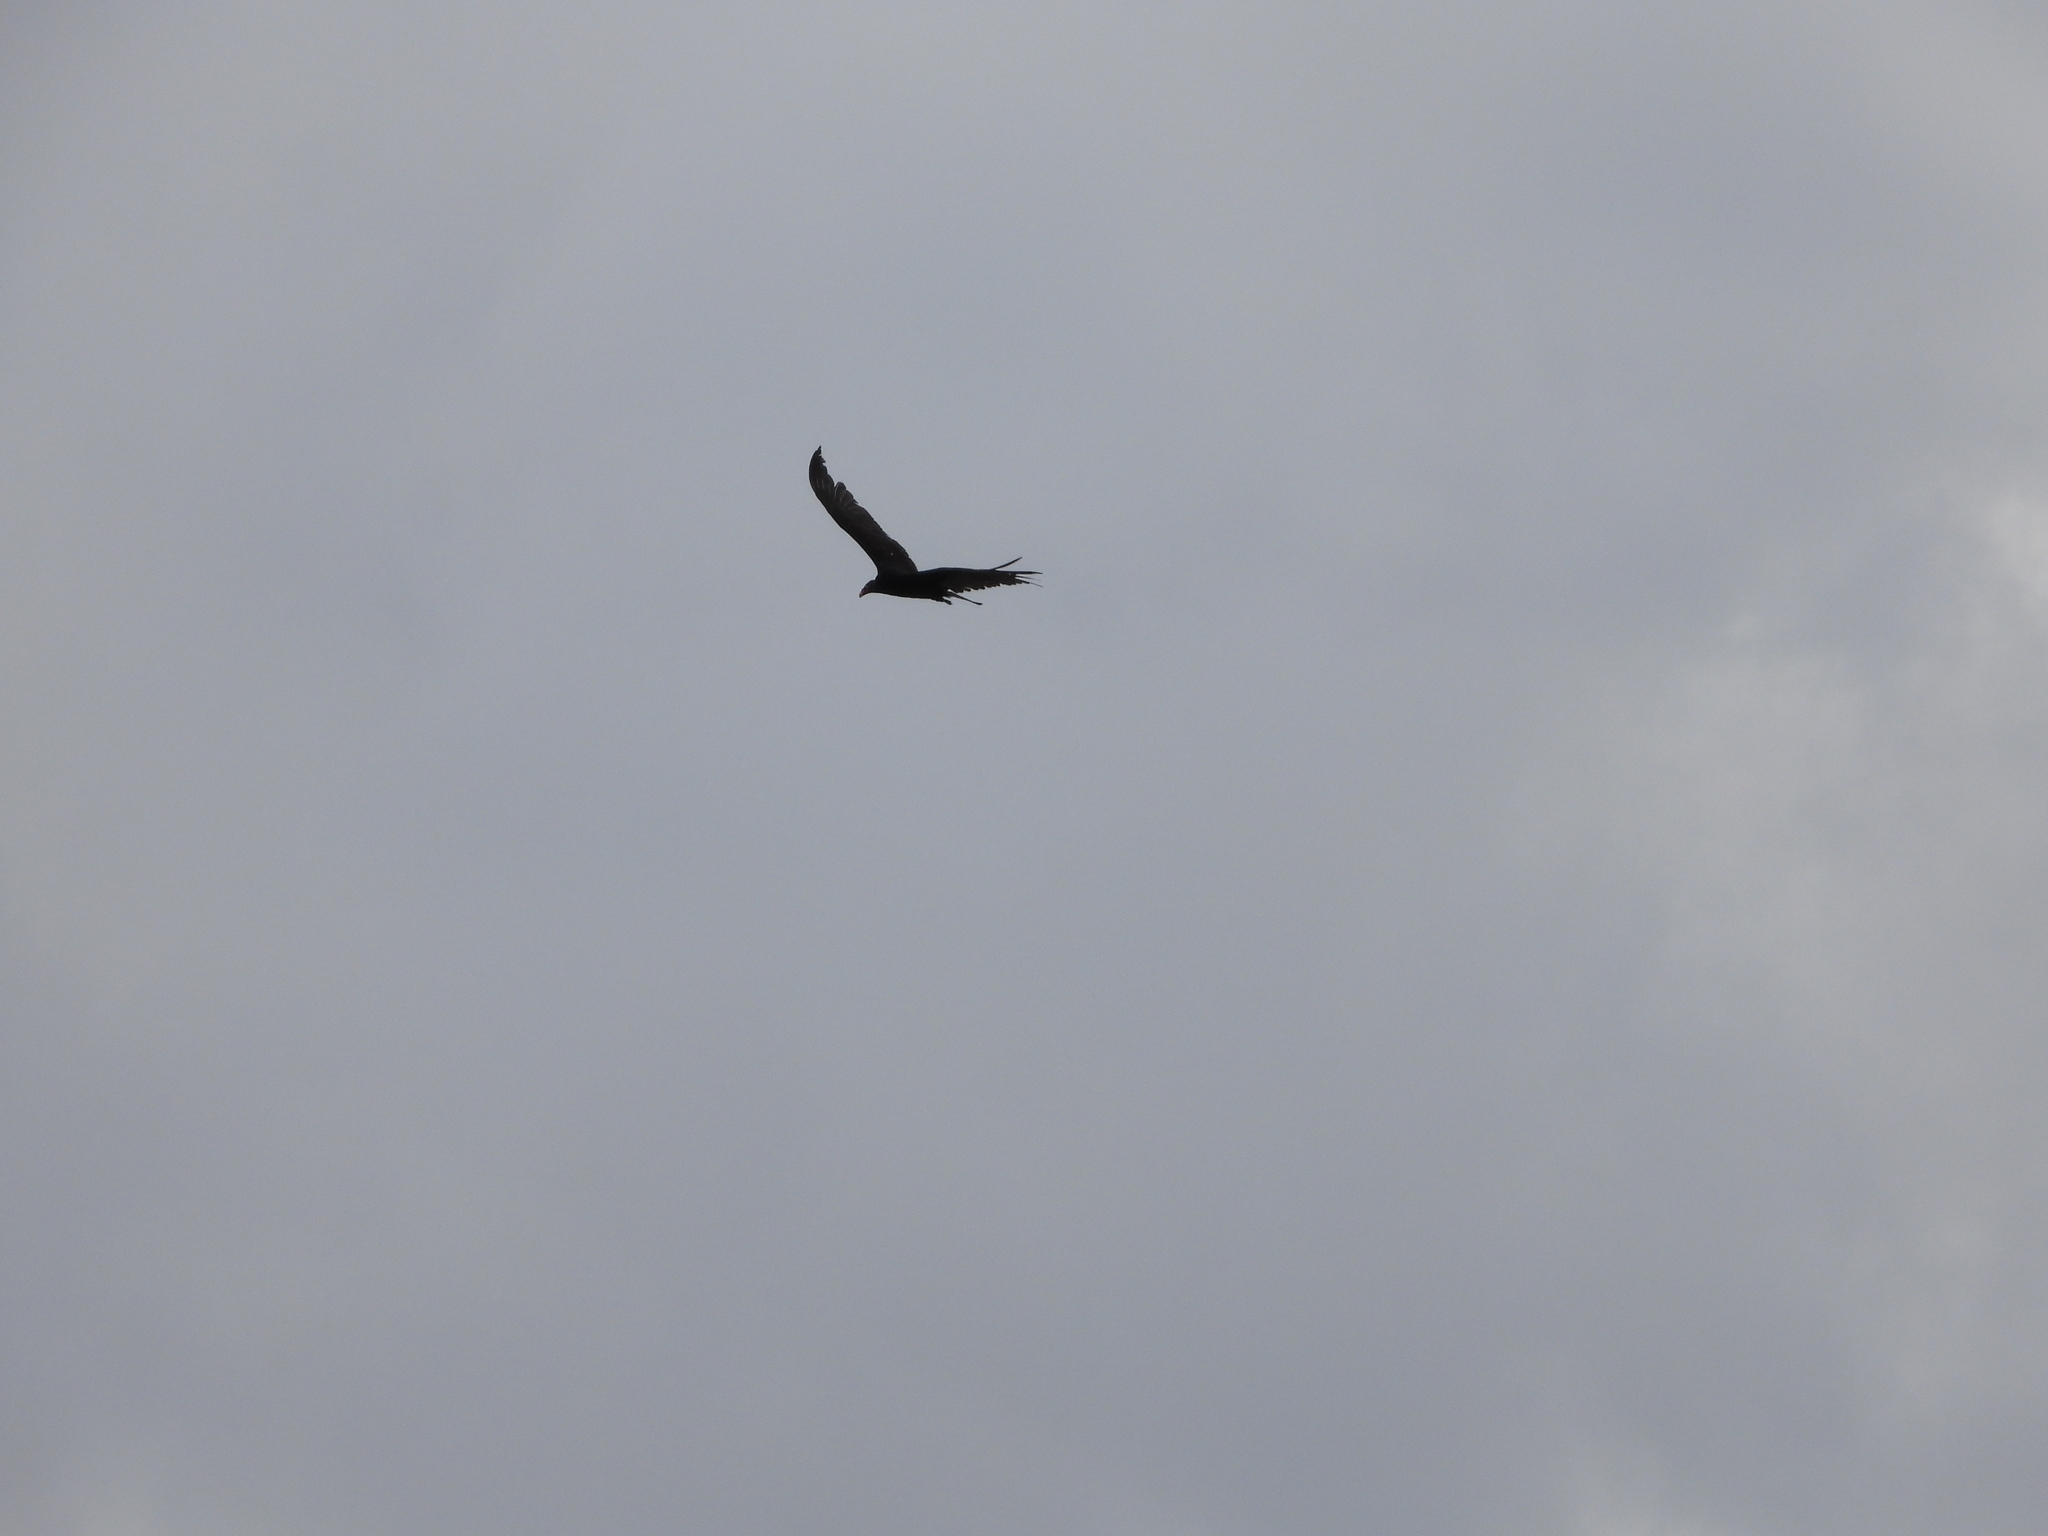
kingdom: Animalia
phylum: Chordata
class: Aves
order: Accipitriformes
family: Cathartidae
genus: Cathartes
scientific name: Cathartes aura
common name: Turkey vulture
